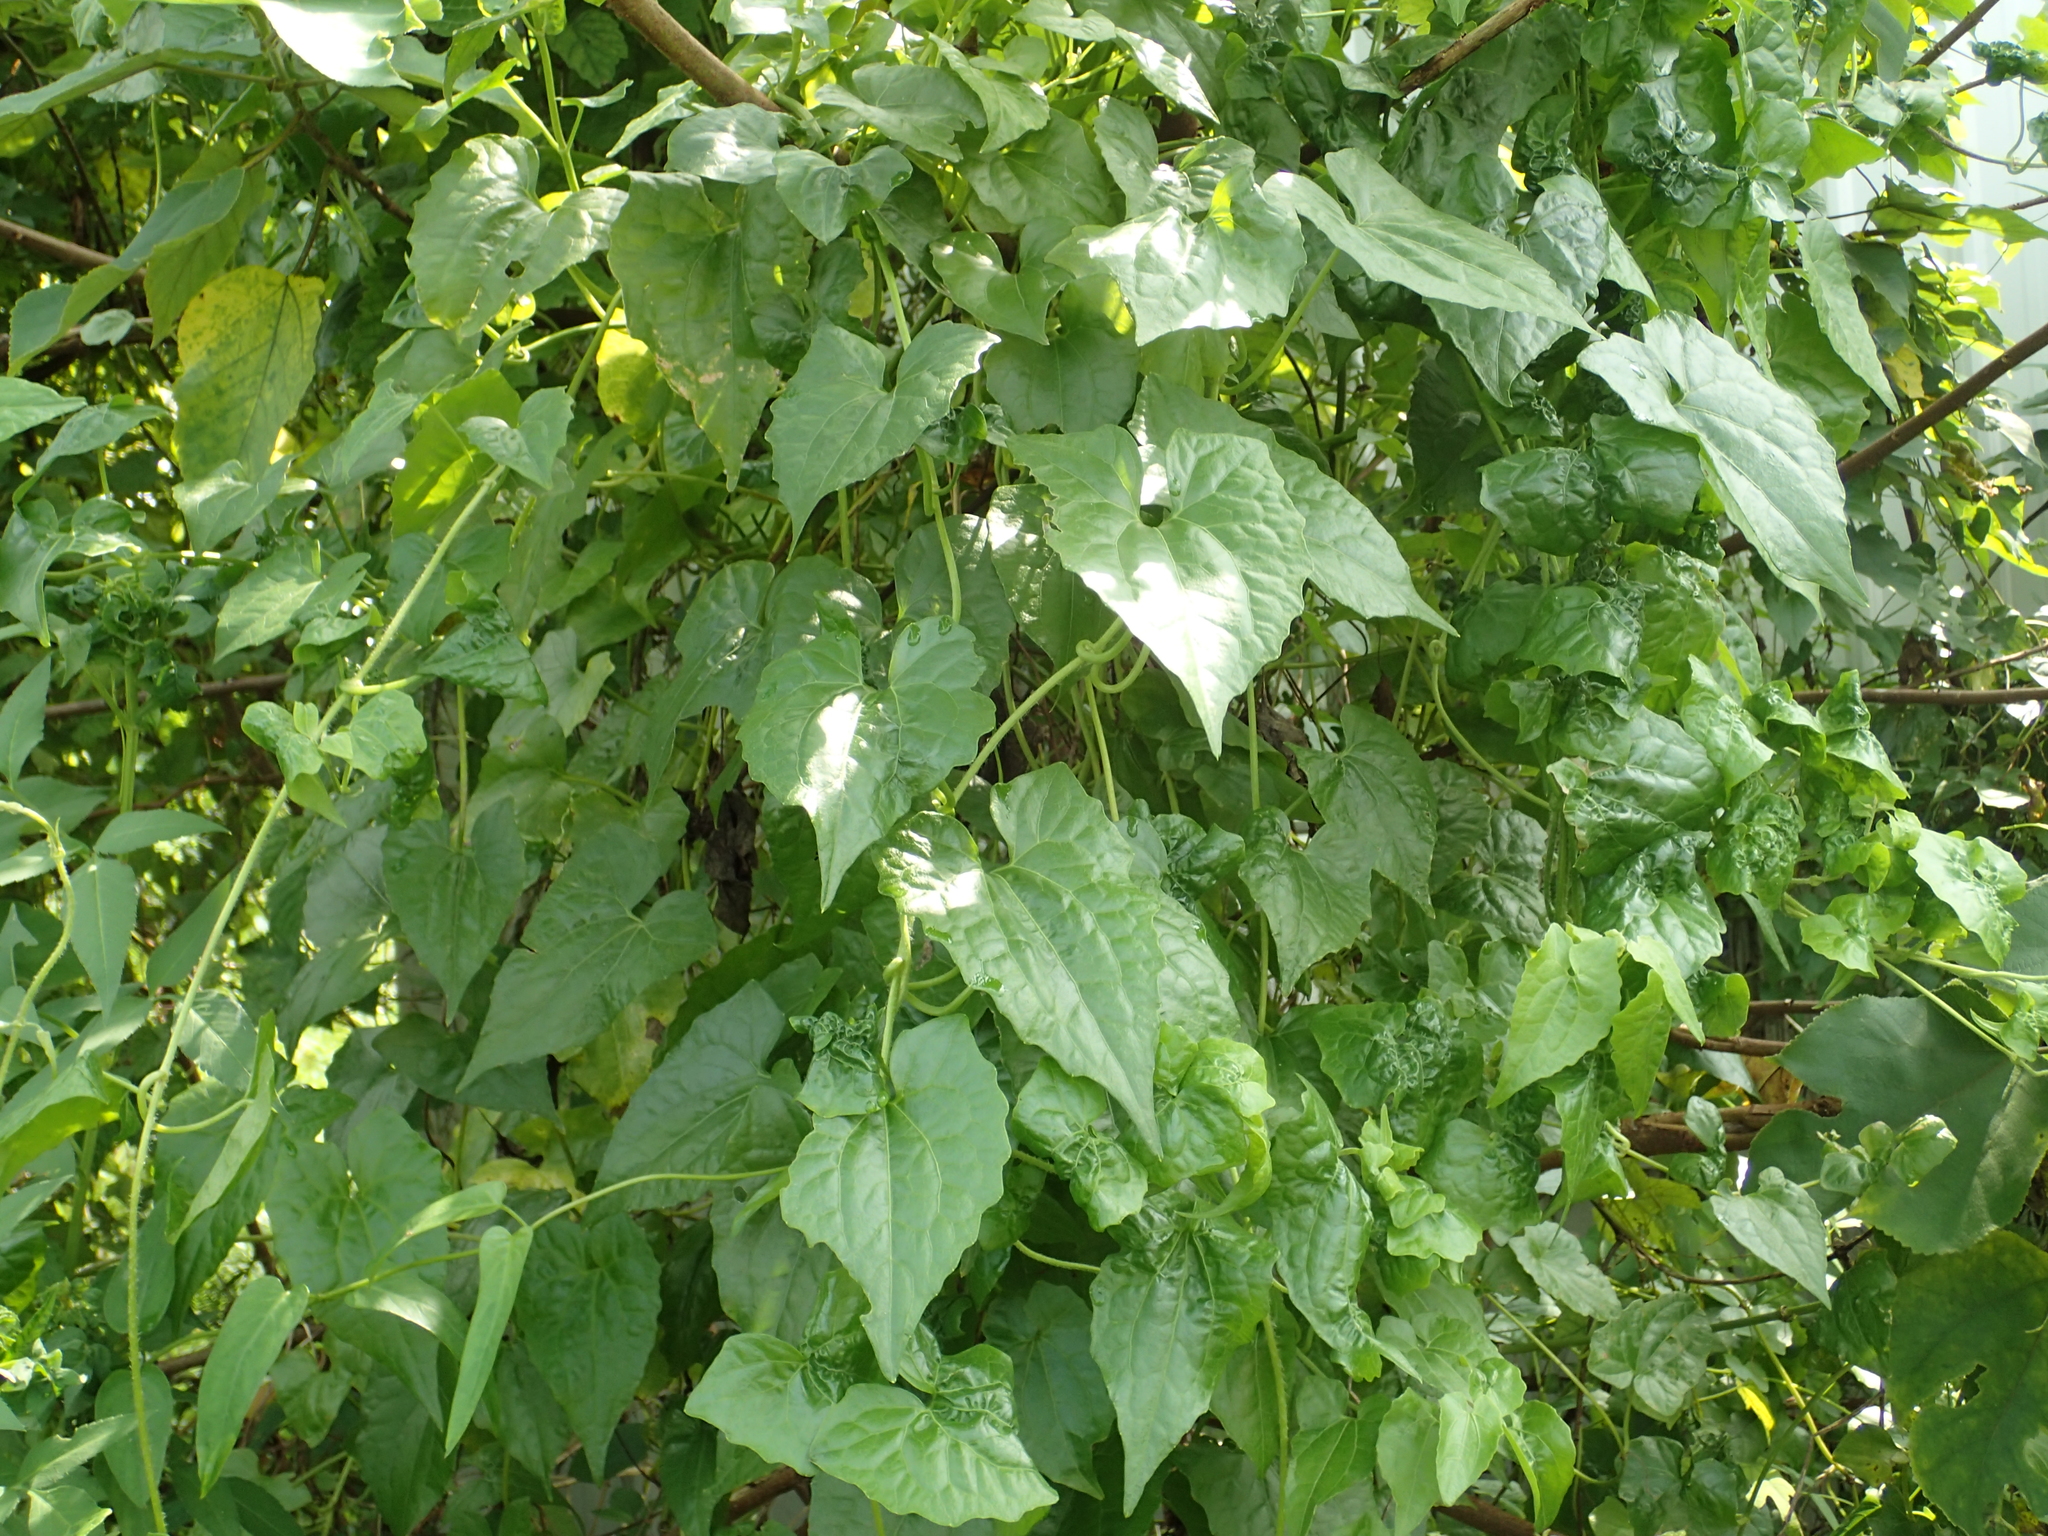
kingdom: Plantae
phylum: Tracheophyta
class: Magnoliopsida
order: Asterales
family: Asteraceae
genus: Mikania
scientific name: Mikania micrantha
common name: Mile-a-minute
